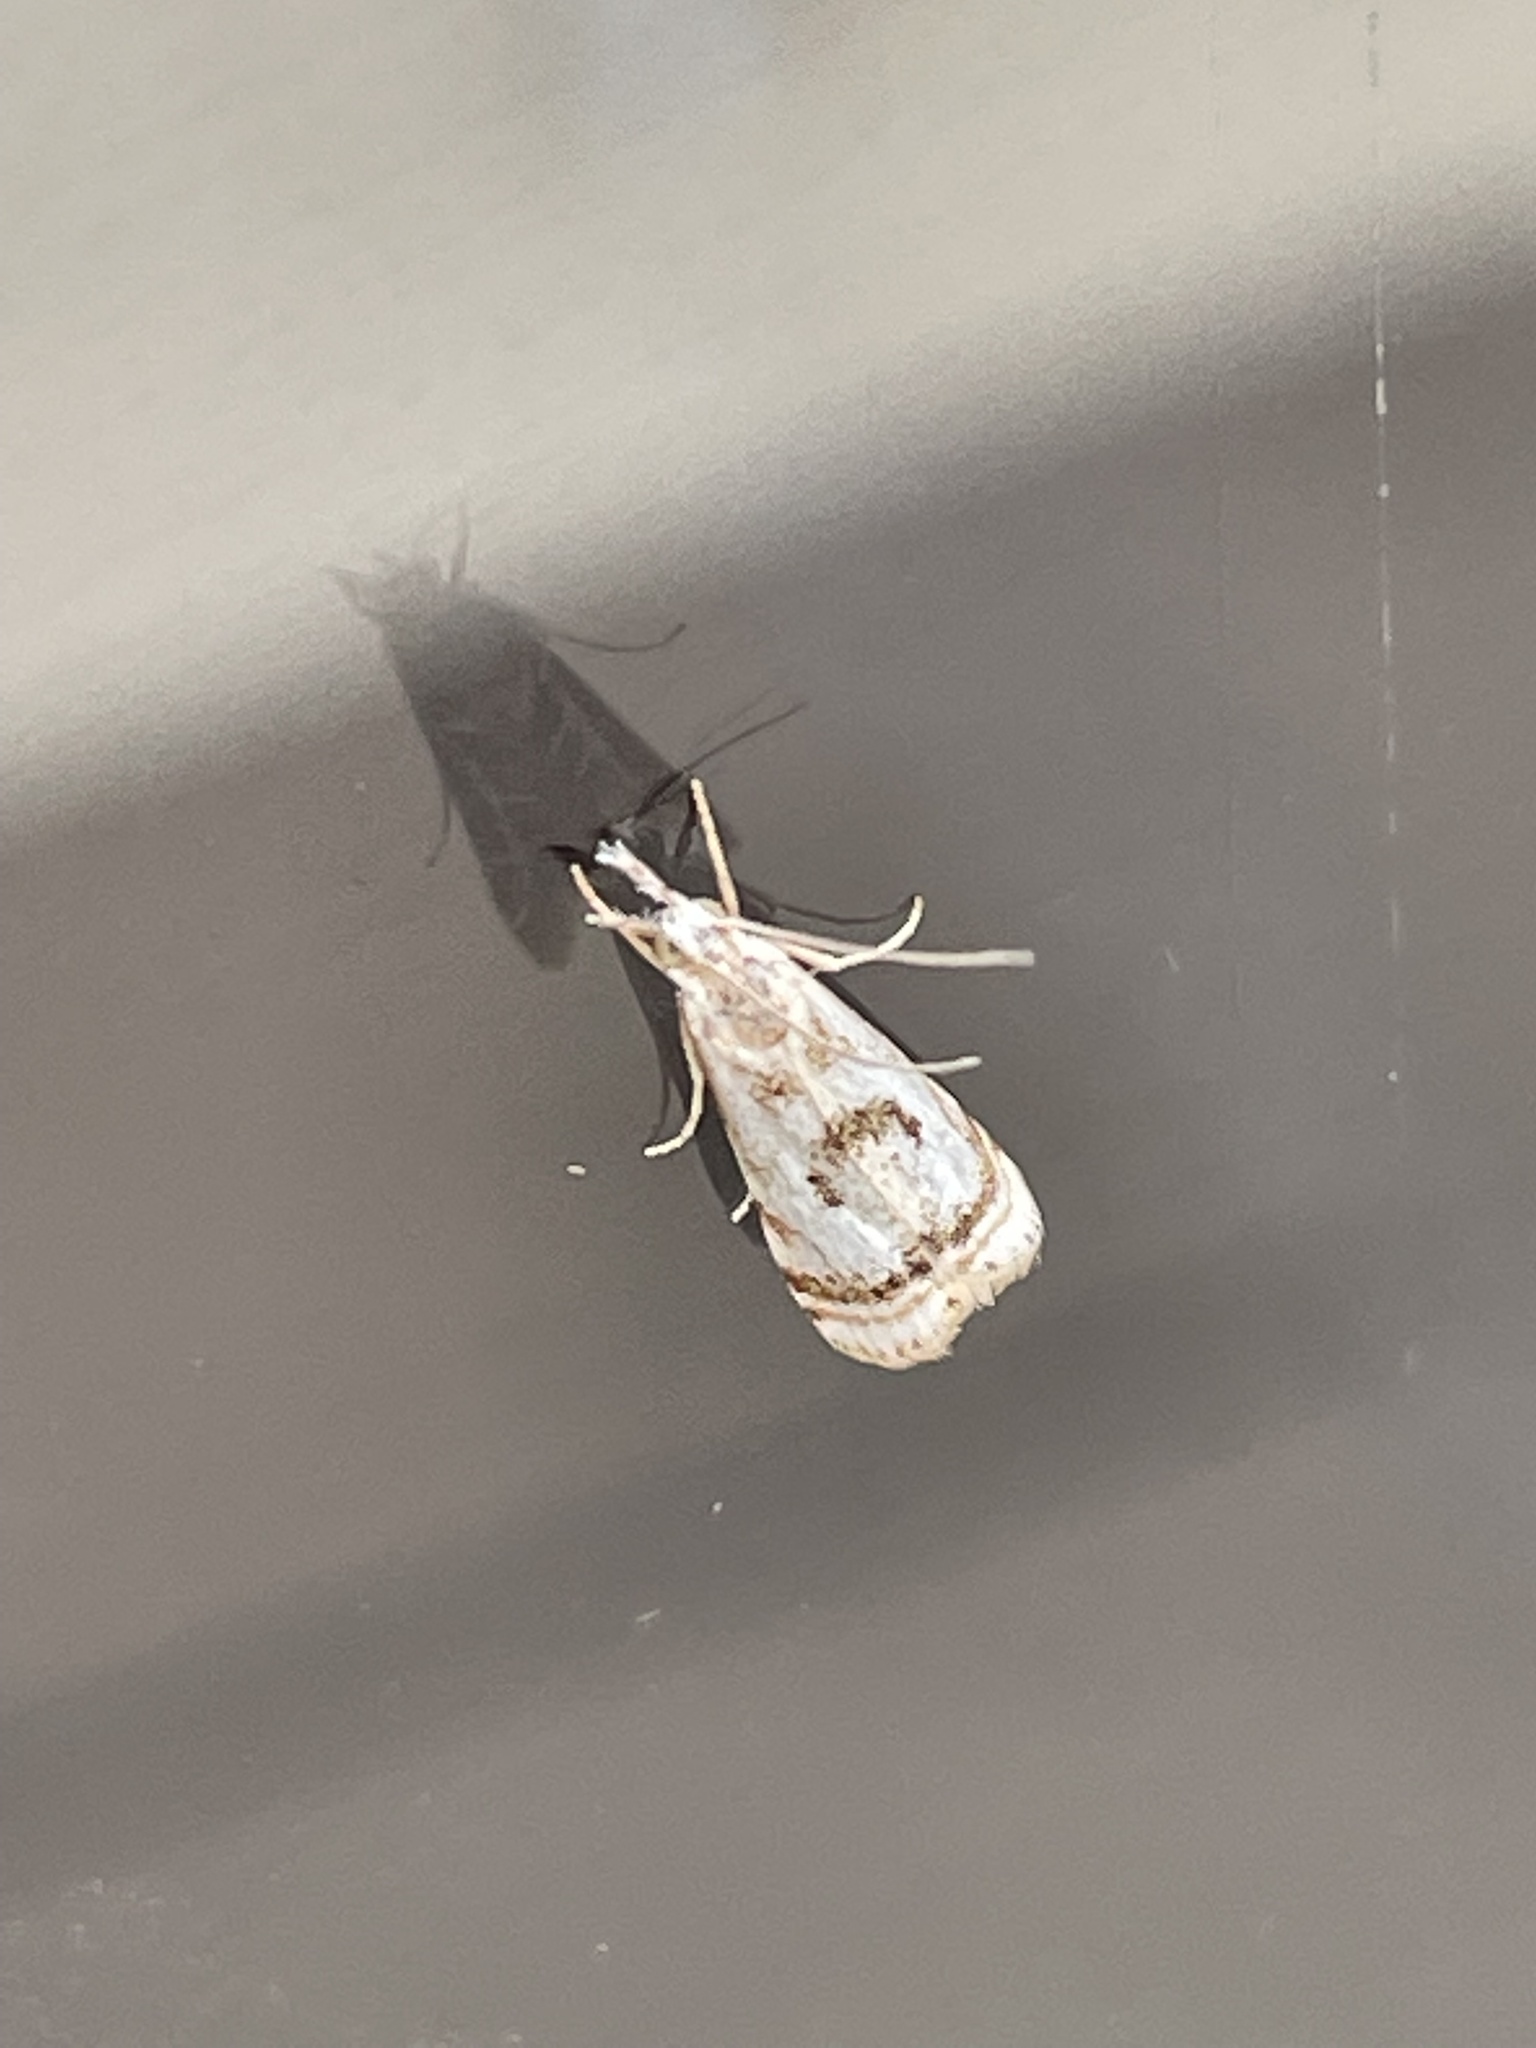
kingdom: Animalia
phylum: Arthropoda
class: Insecta
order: Lepidoptera
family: Crambidae
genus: Microcrambus
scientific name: Microcrambus elegans
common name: Elegant grass-veneer
